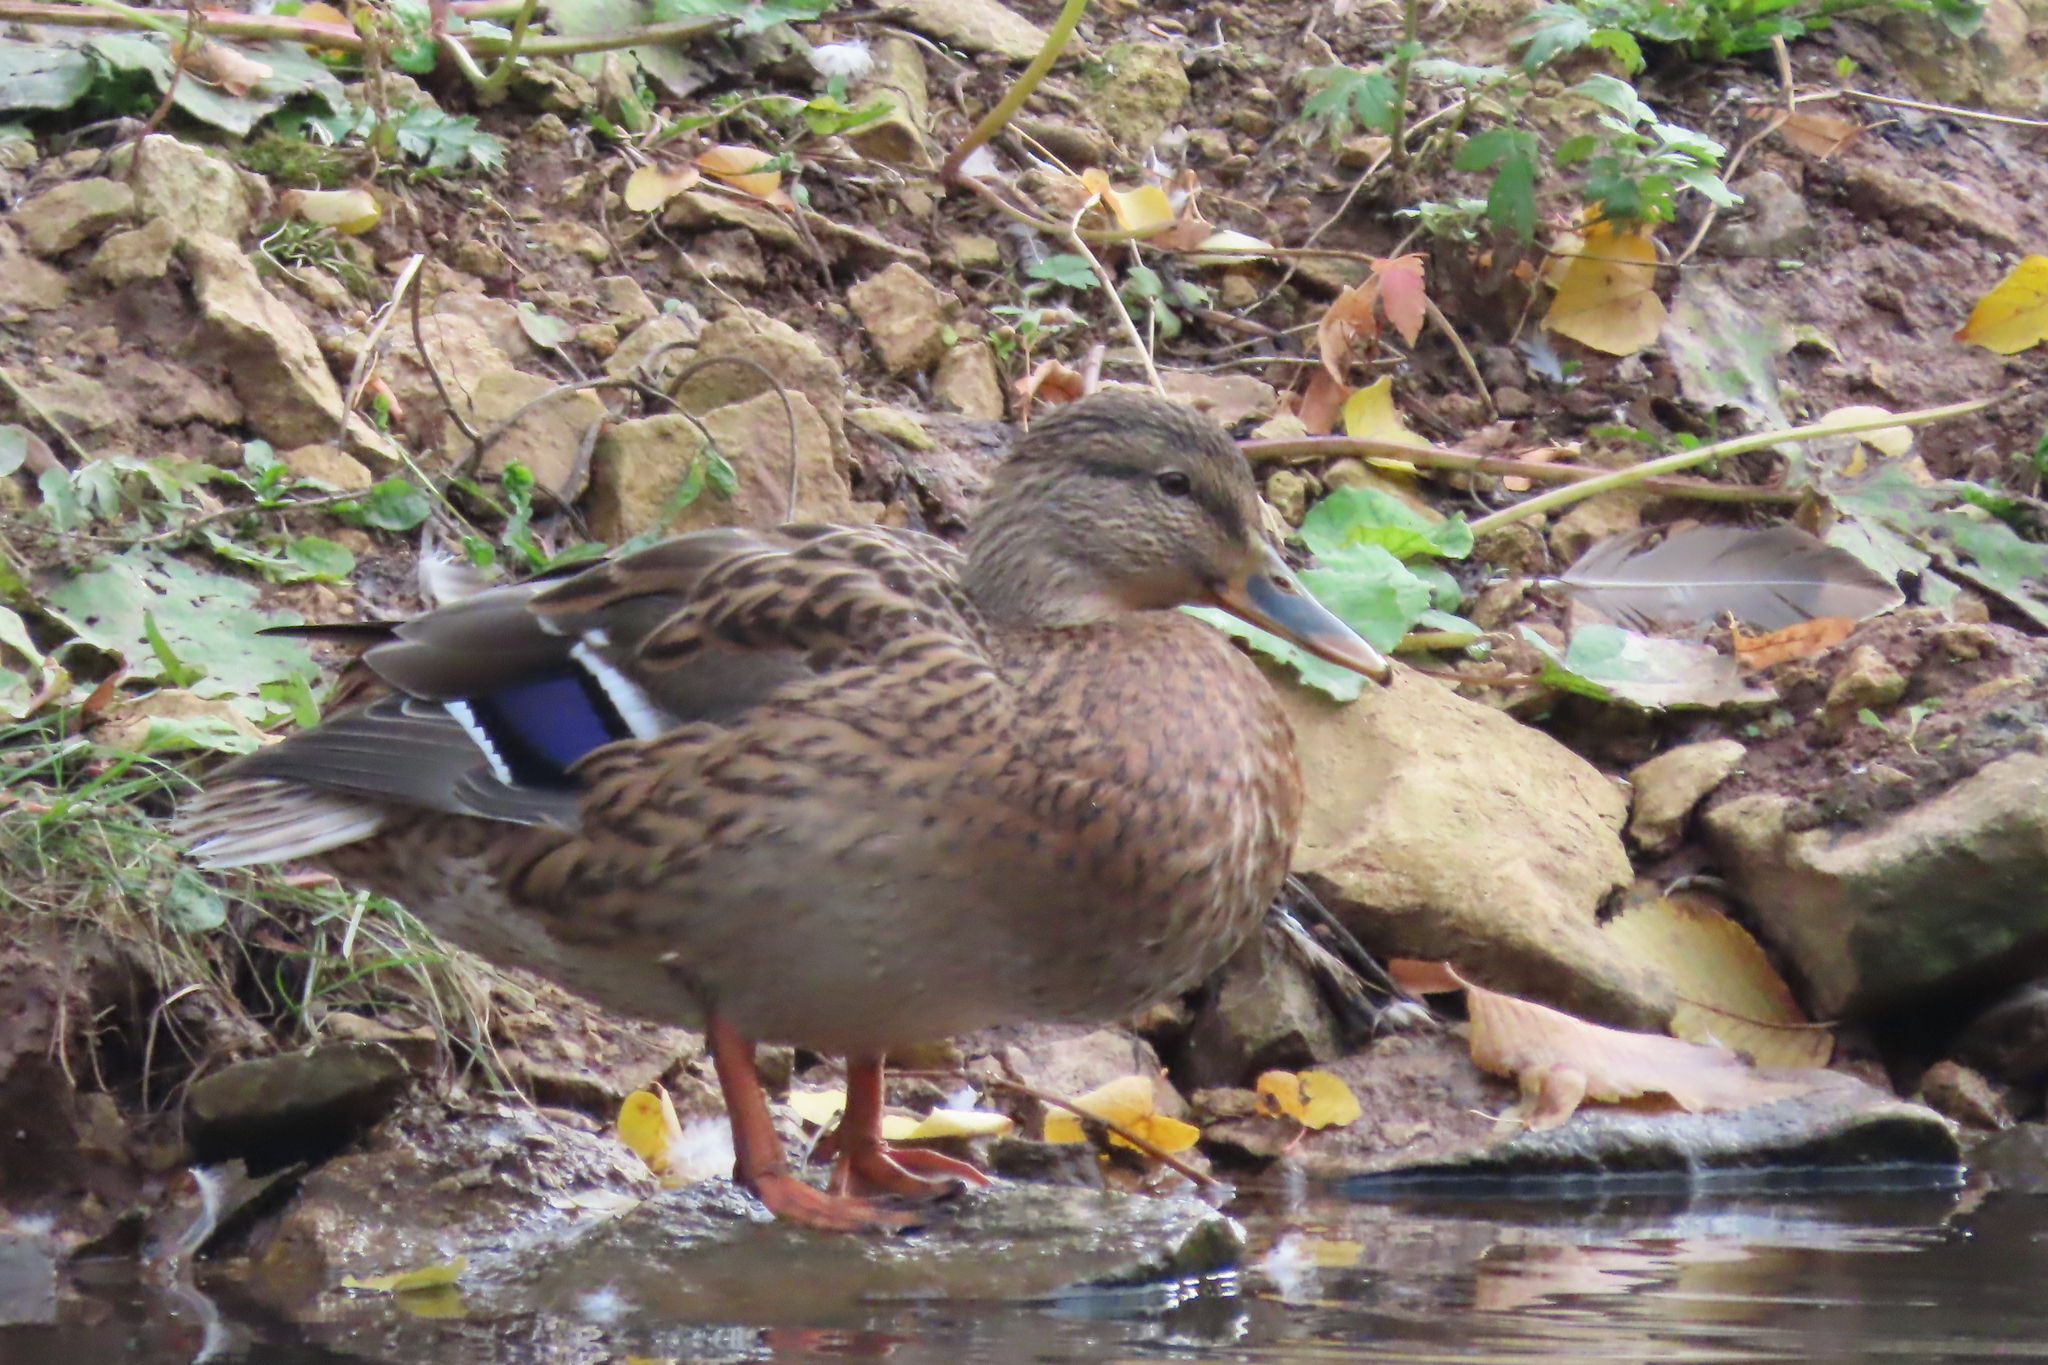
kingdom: Animalia
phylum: Chordata
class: Aves
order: Anseriformes
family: Anatidae
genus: Anas
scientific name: Anas platyrhynchos
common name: Mallard
